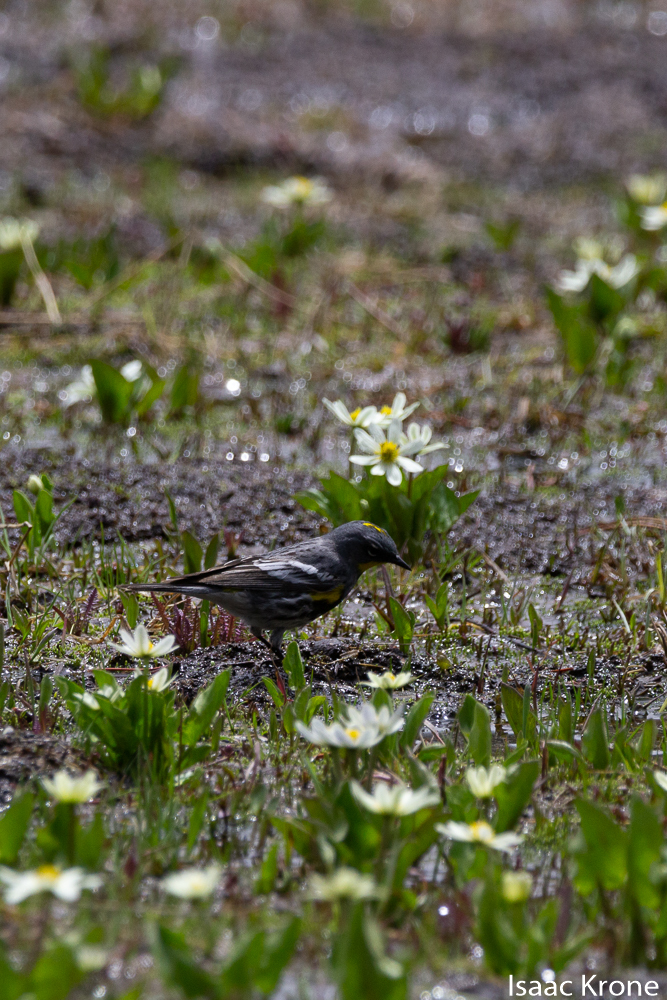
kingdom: Animalia
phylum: Chordata
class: Aves
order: Passeriformes
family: Parulidae
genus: Setophaga
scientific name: Setophaga coronata
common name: Myrtle warbler
